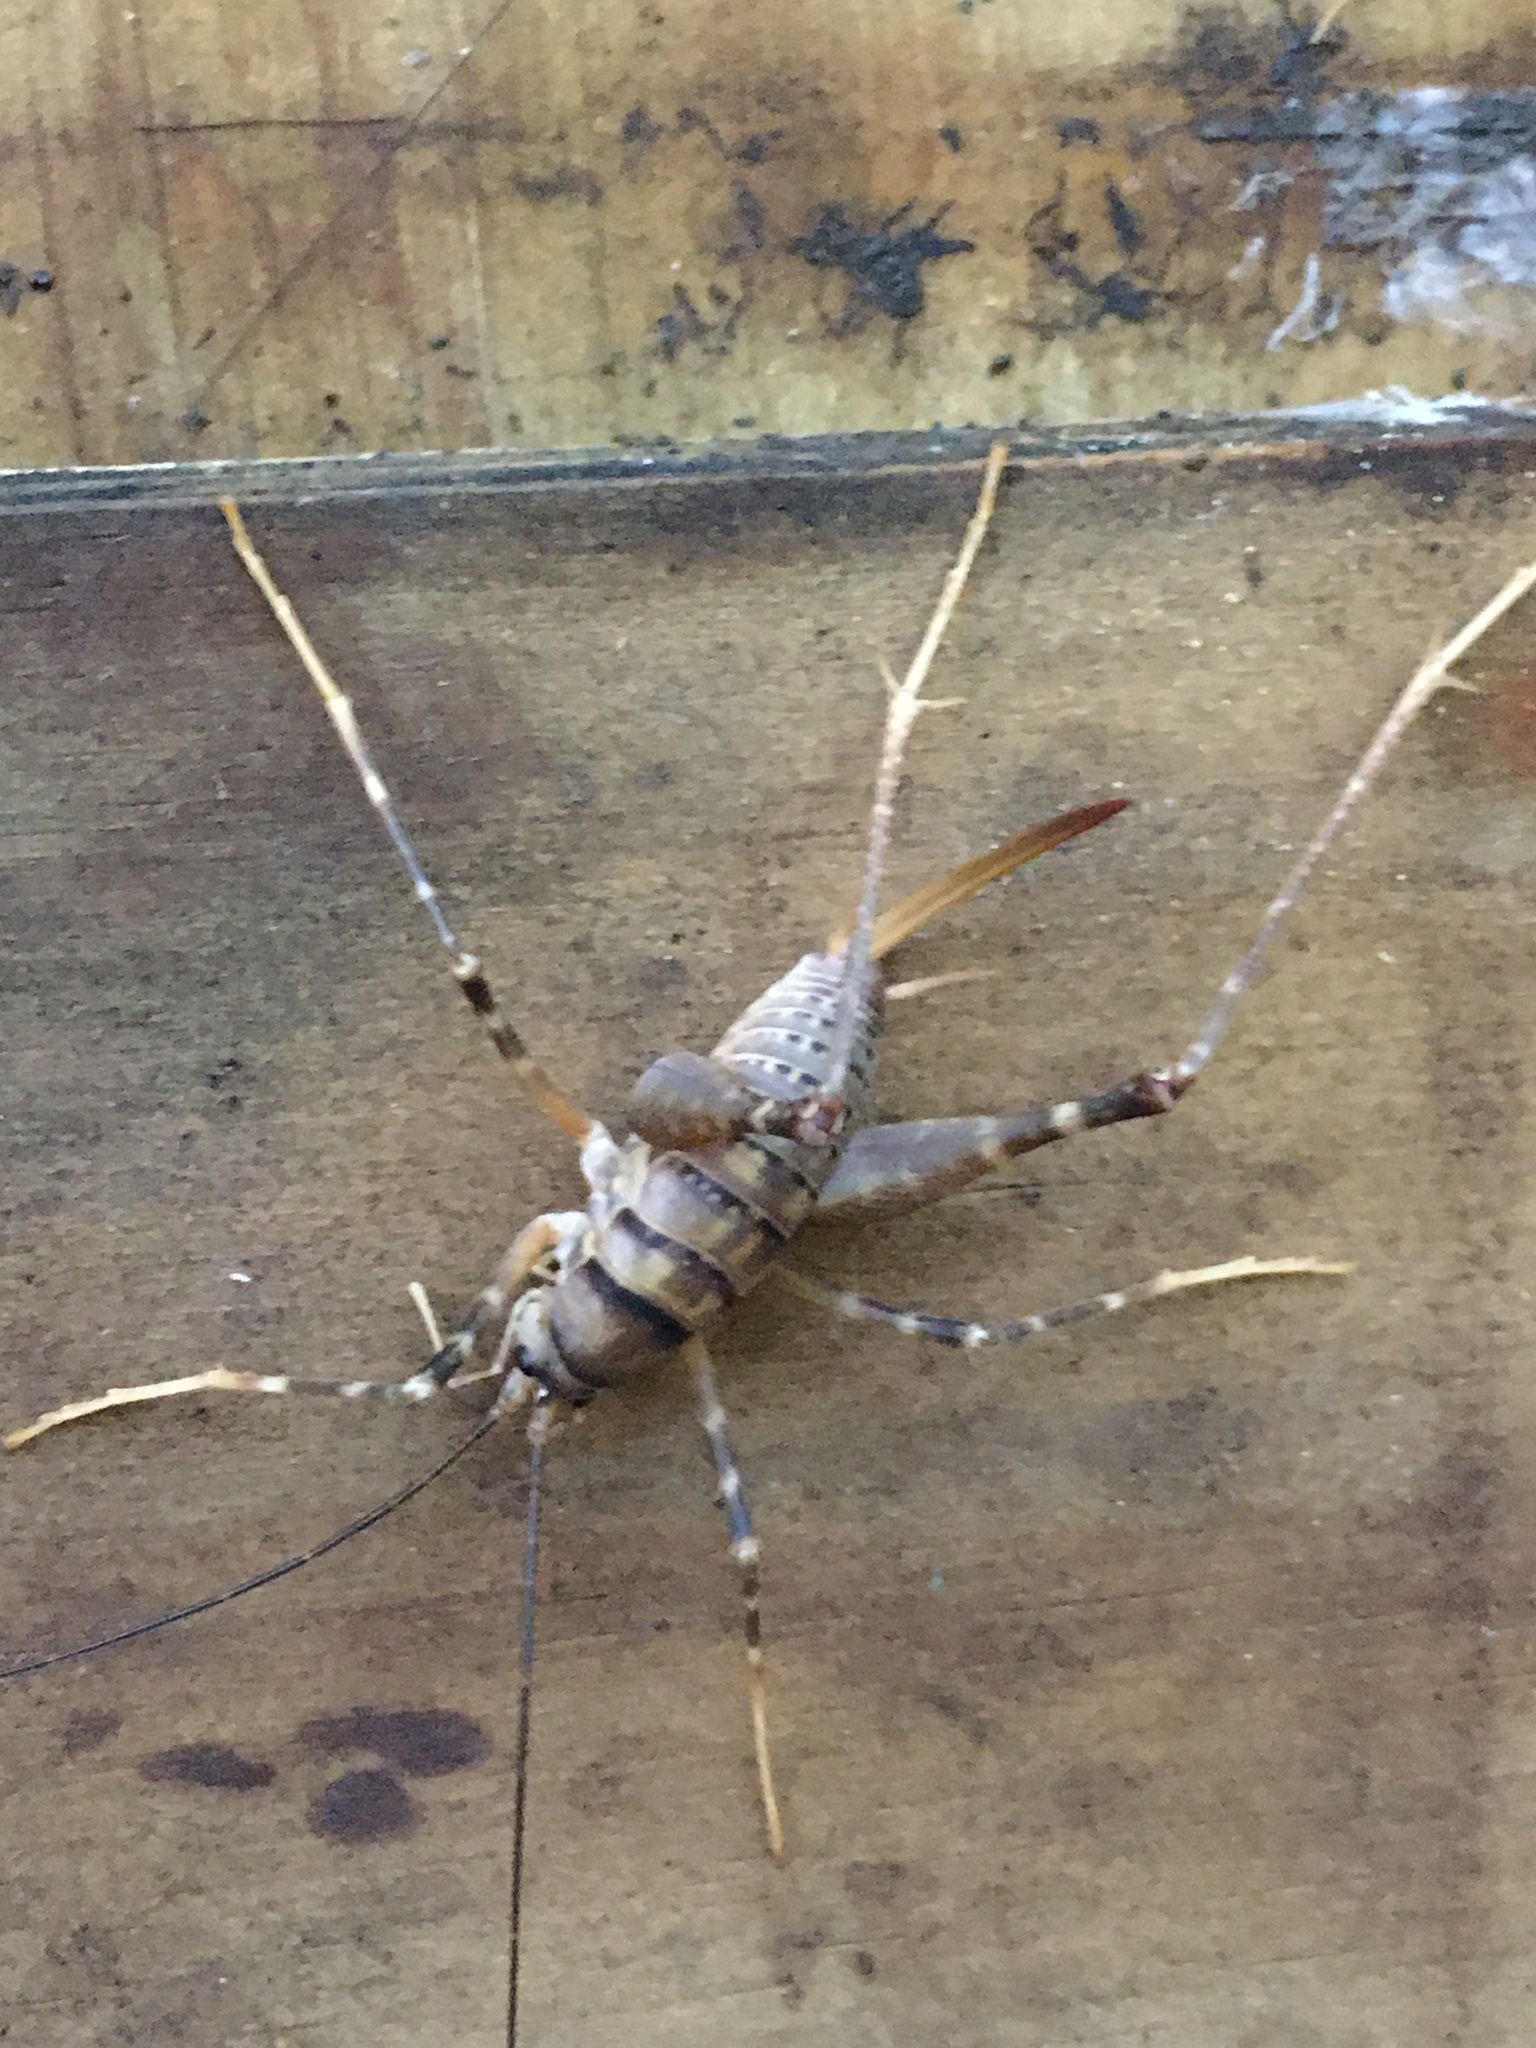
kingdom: Animalia
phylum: Arthropoda
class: Insecta
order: Orthoptera
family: Rhaphidophoridae
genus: Pachyrhamma
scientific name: Pachyrhamma edwardsii
